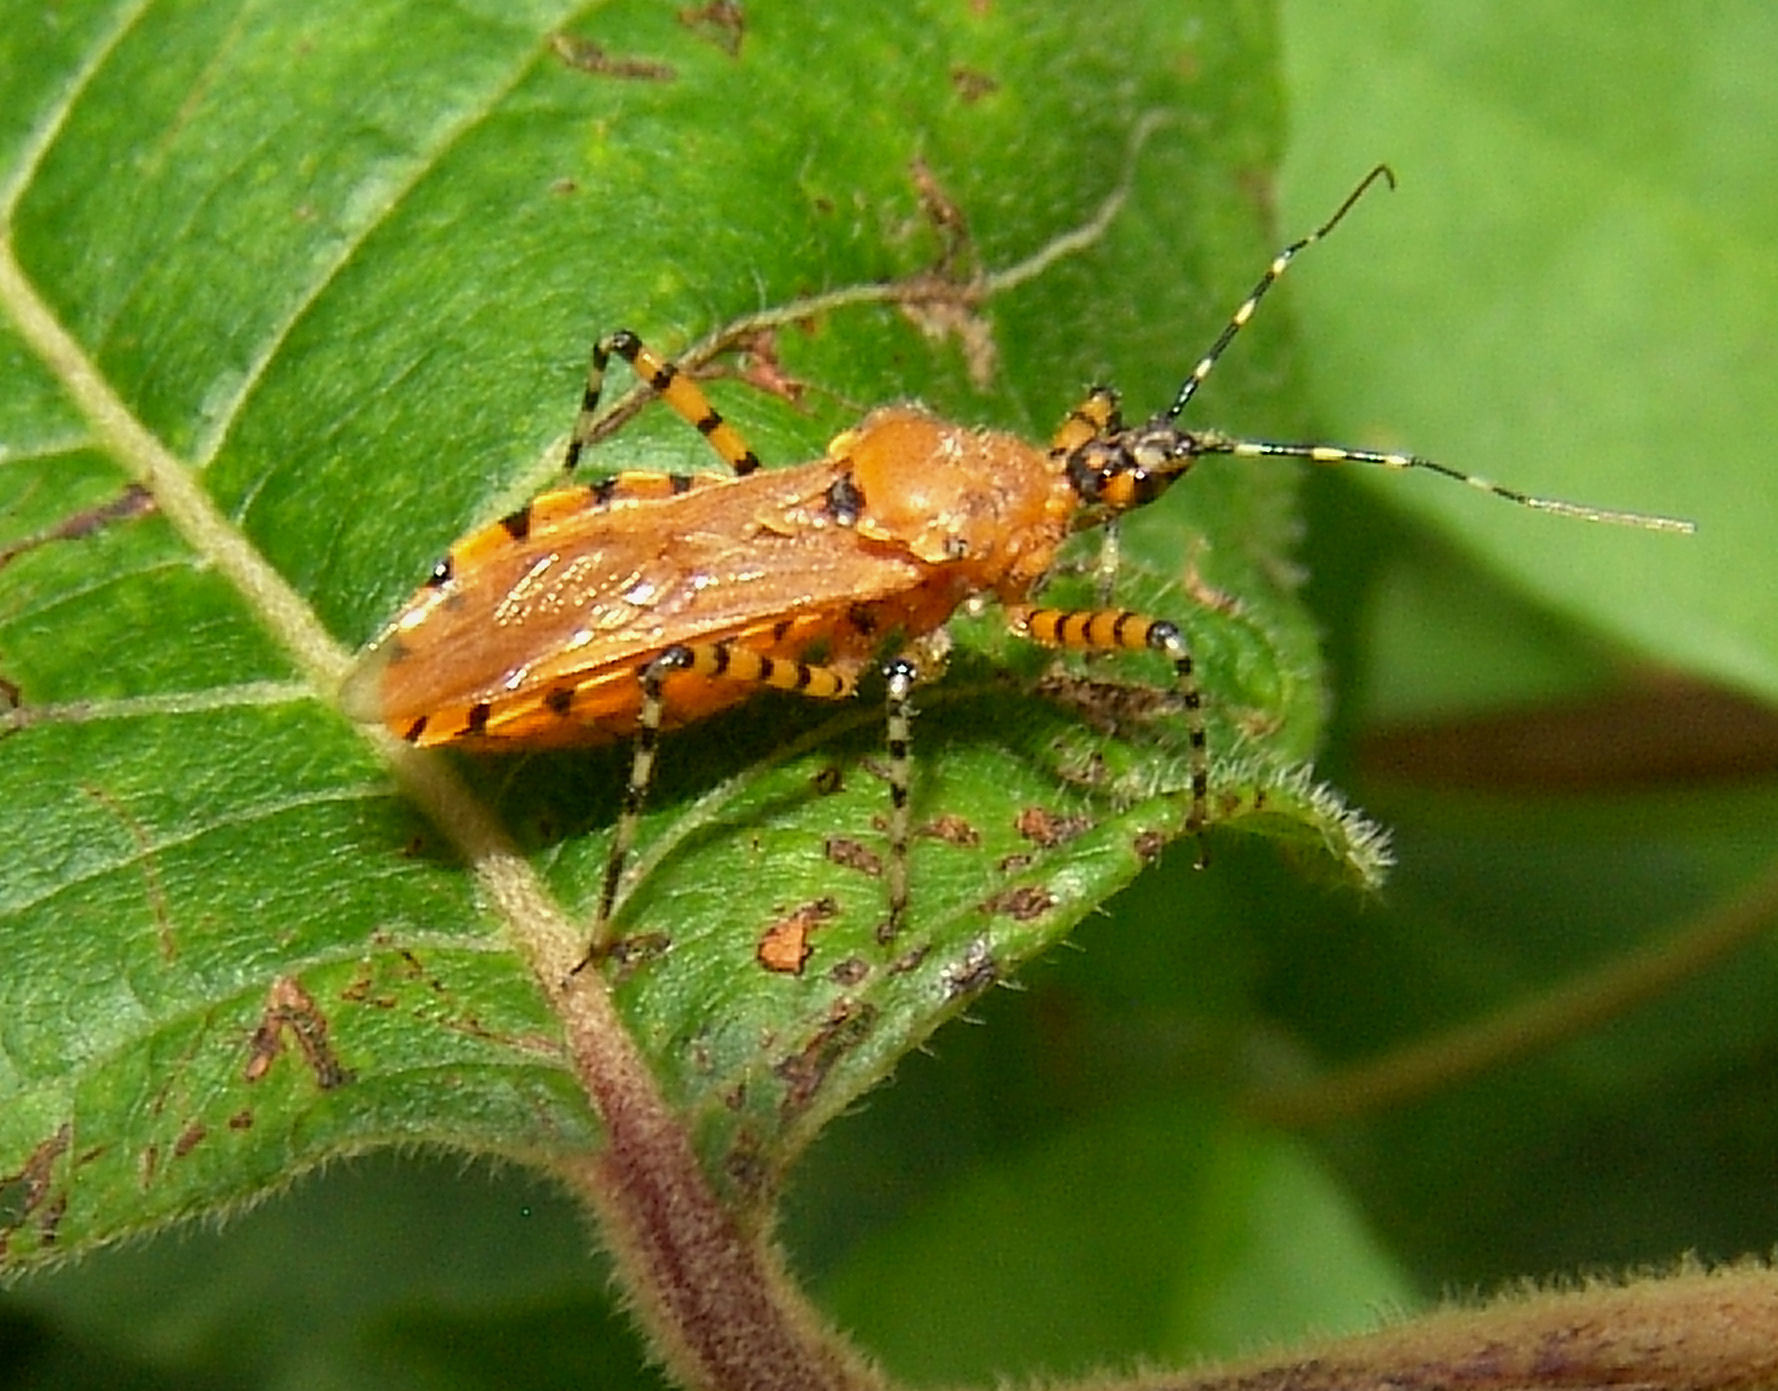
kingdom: Animalia
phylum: Arthropoda
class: Insecta
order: Hemiptera
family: Reduviidae
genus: Pselliopus
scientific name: Pselliopus barberi
